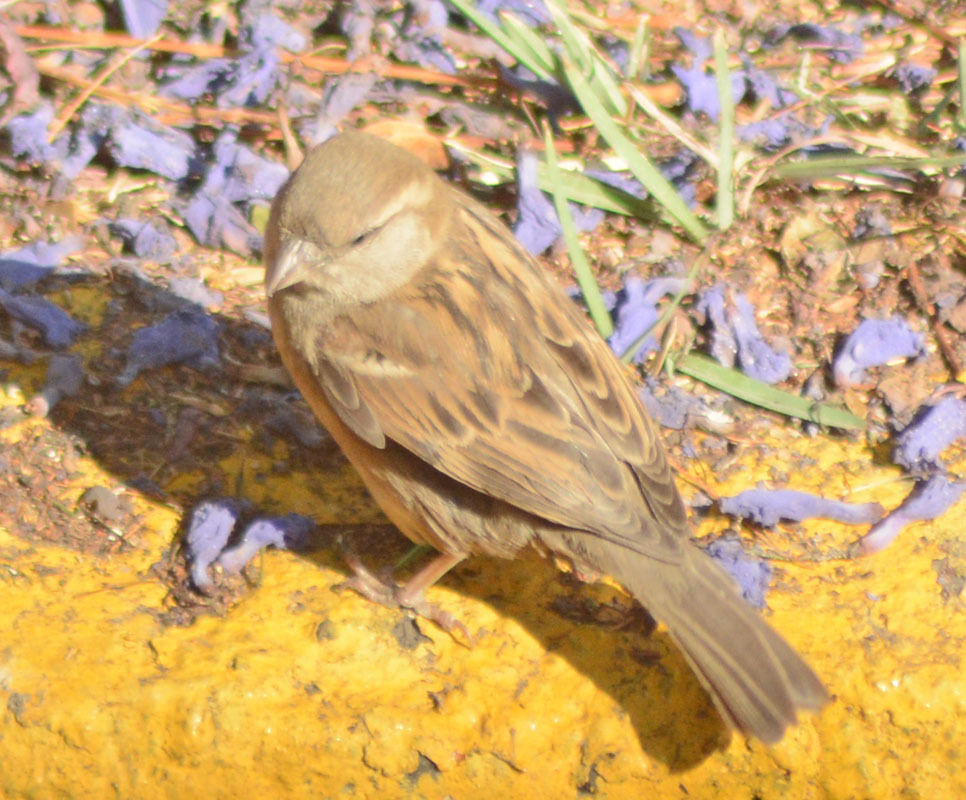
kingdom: Animalia
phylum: Chordata
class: Aves
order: Passeriformes
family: Passeridae
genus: Passer
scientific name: Passer domesticus
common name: House sparrow
